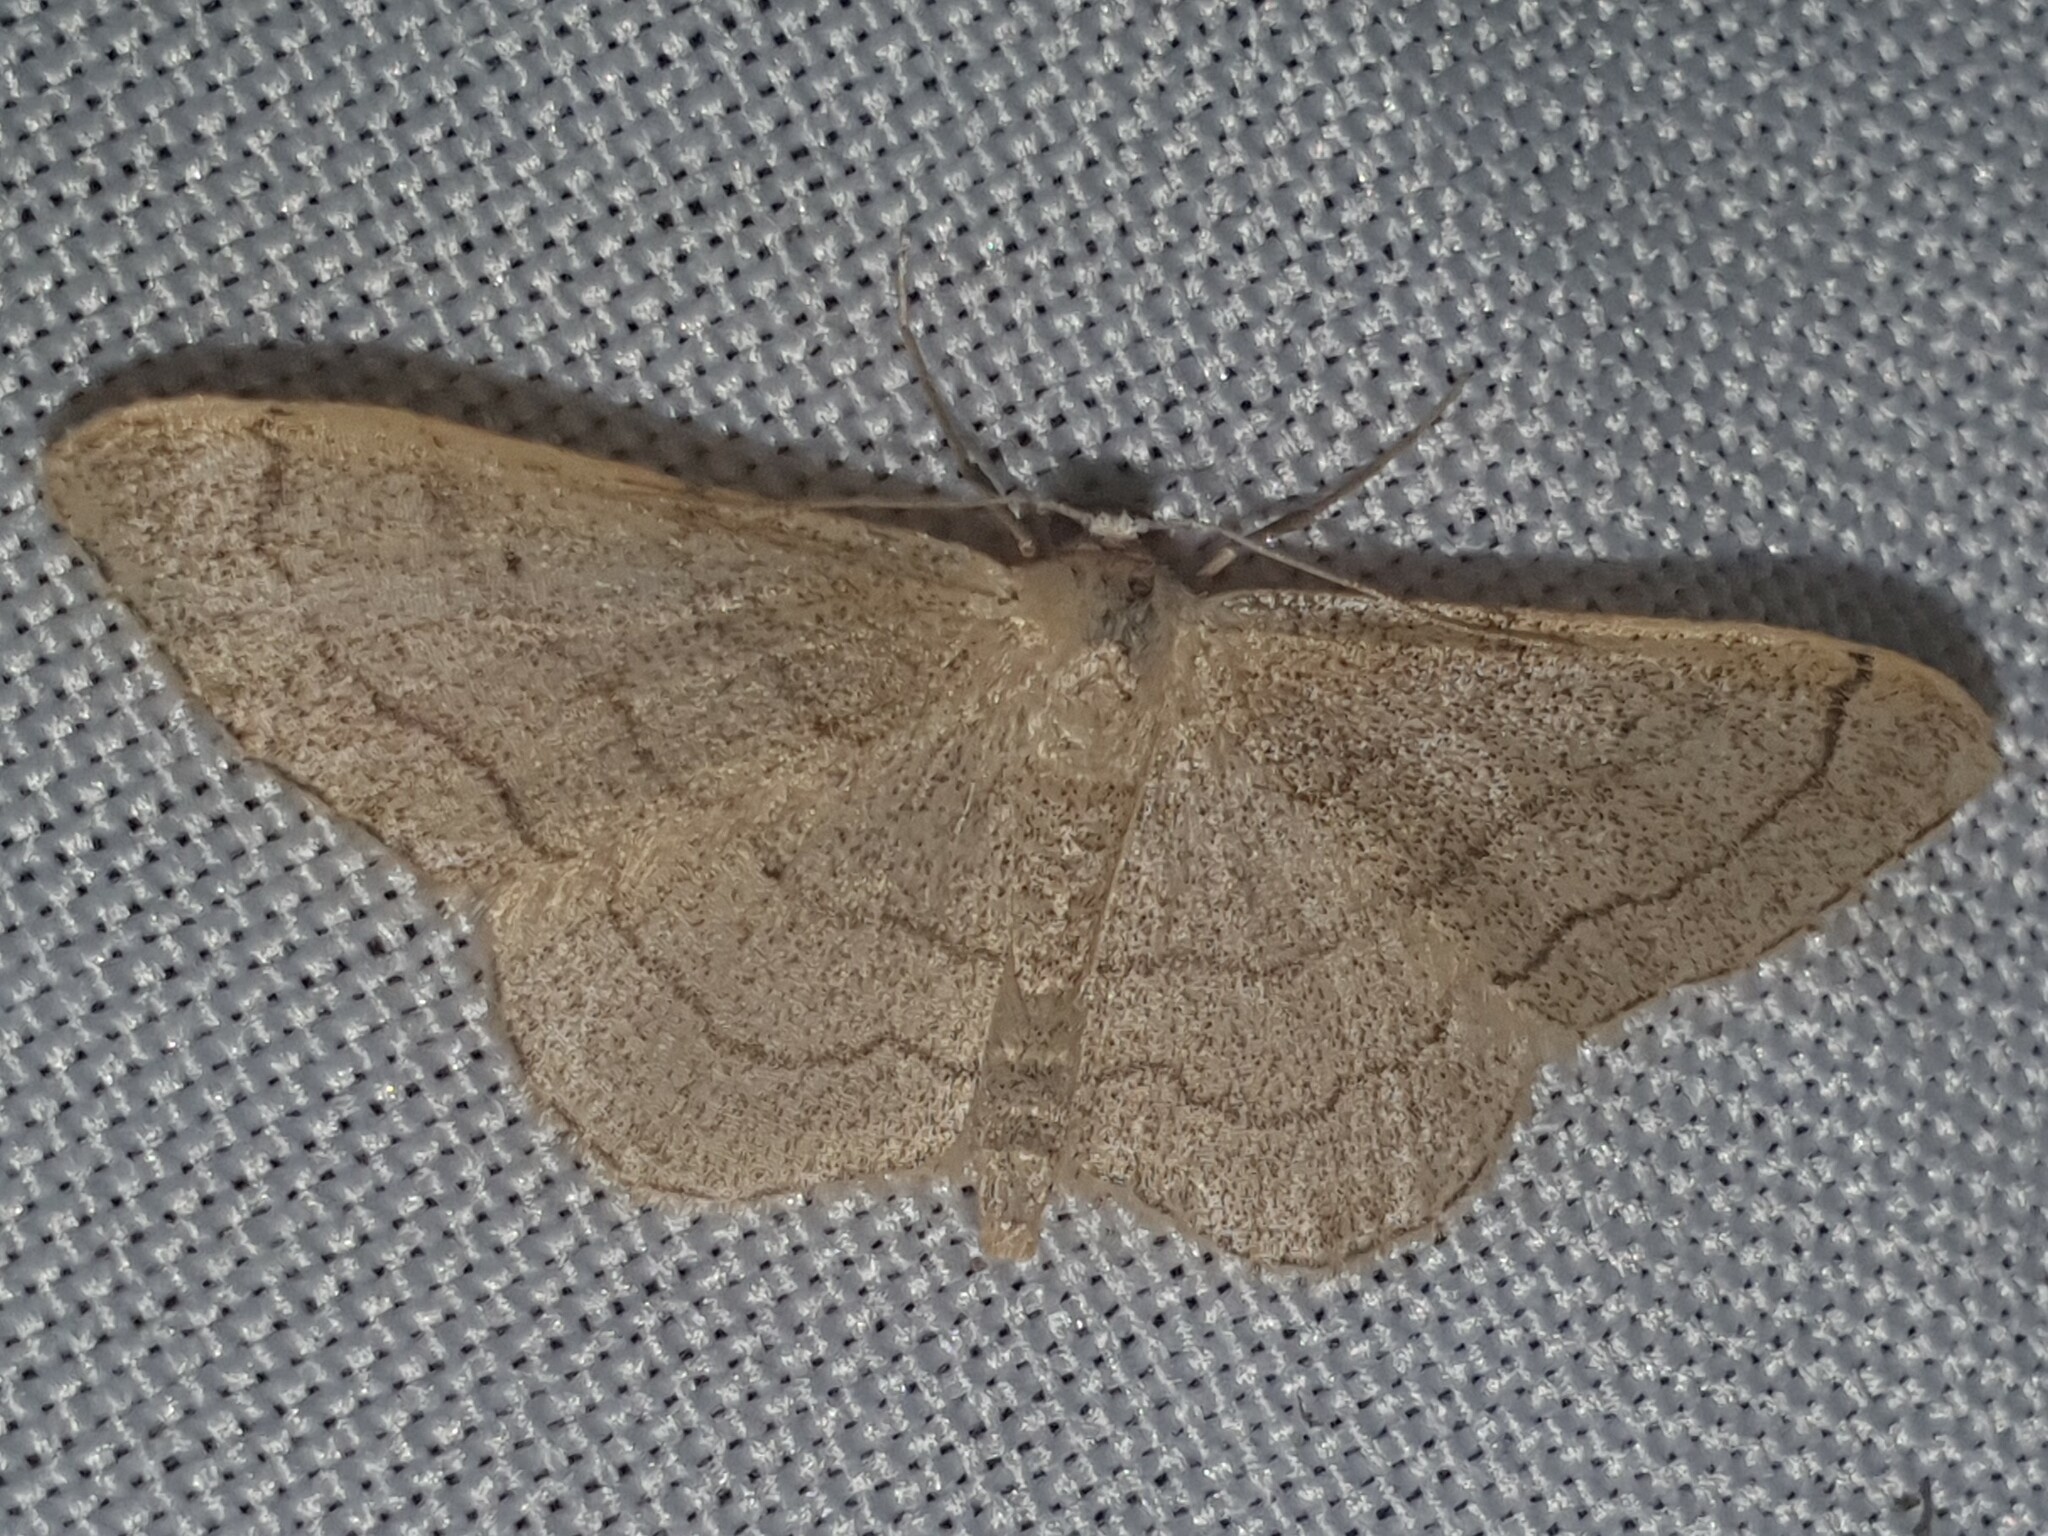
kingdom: Animalia
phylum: Arthropoda
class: Insecta
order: Lepidoptera
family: Geometridae
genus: Idaea
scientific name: Idaea aversata
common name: Riband wave
